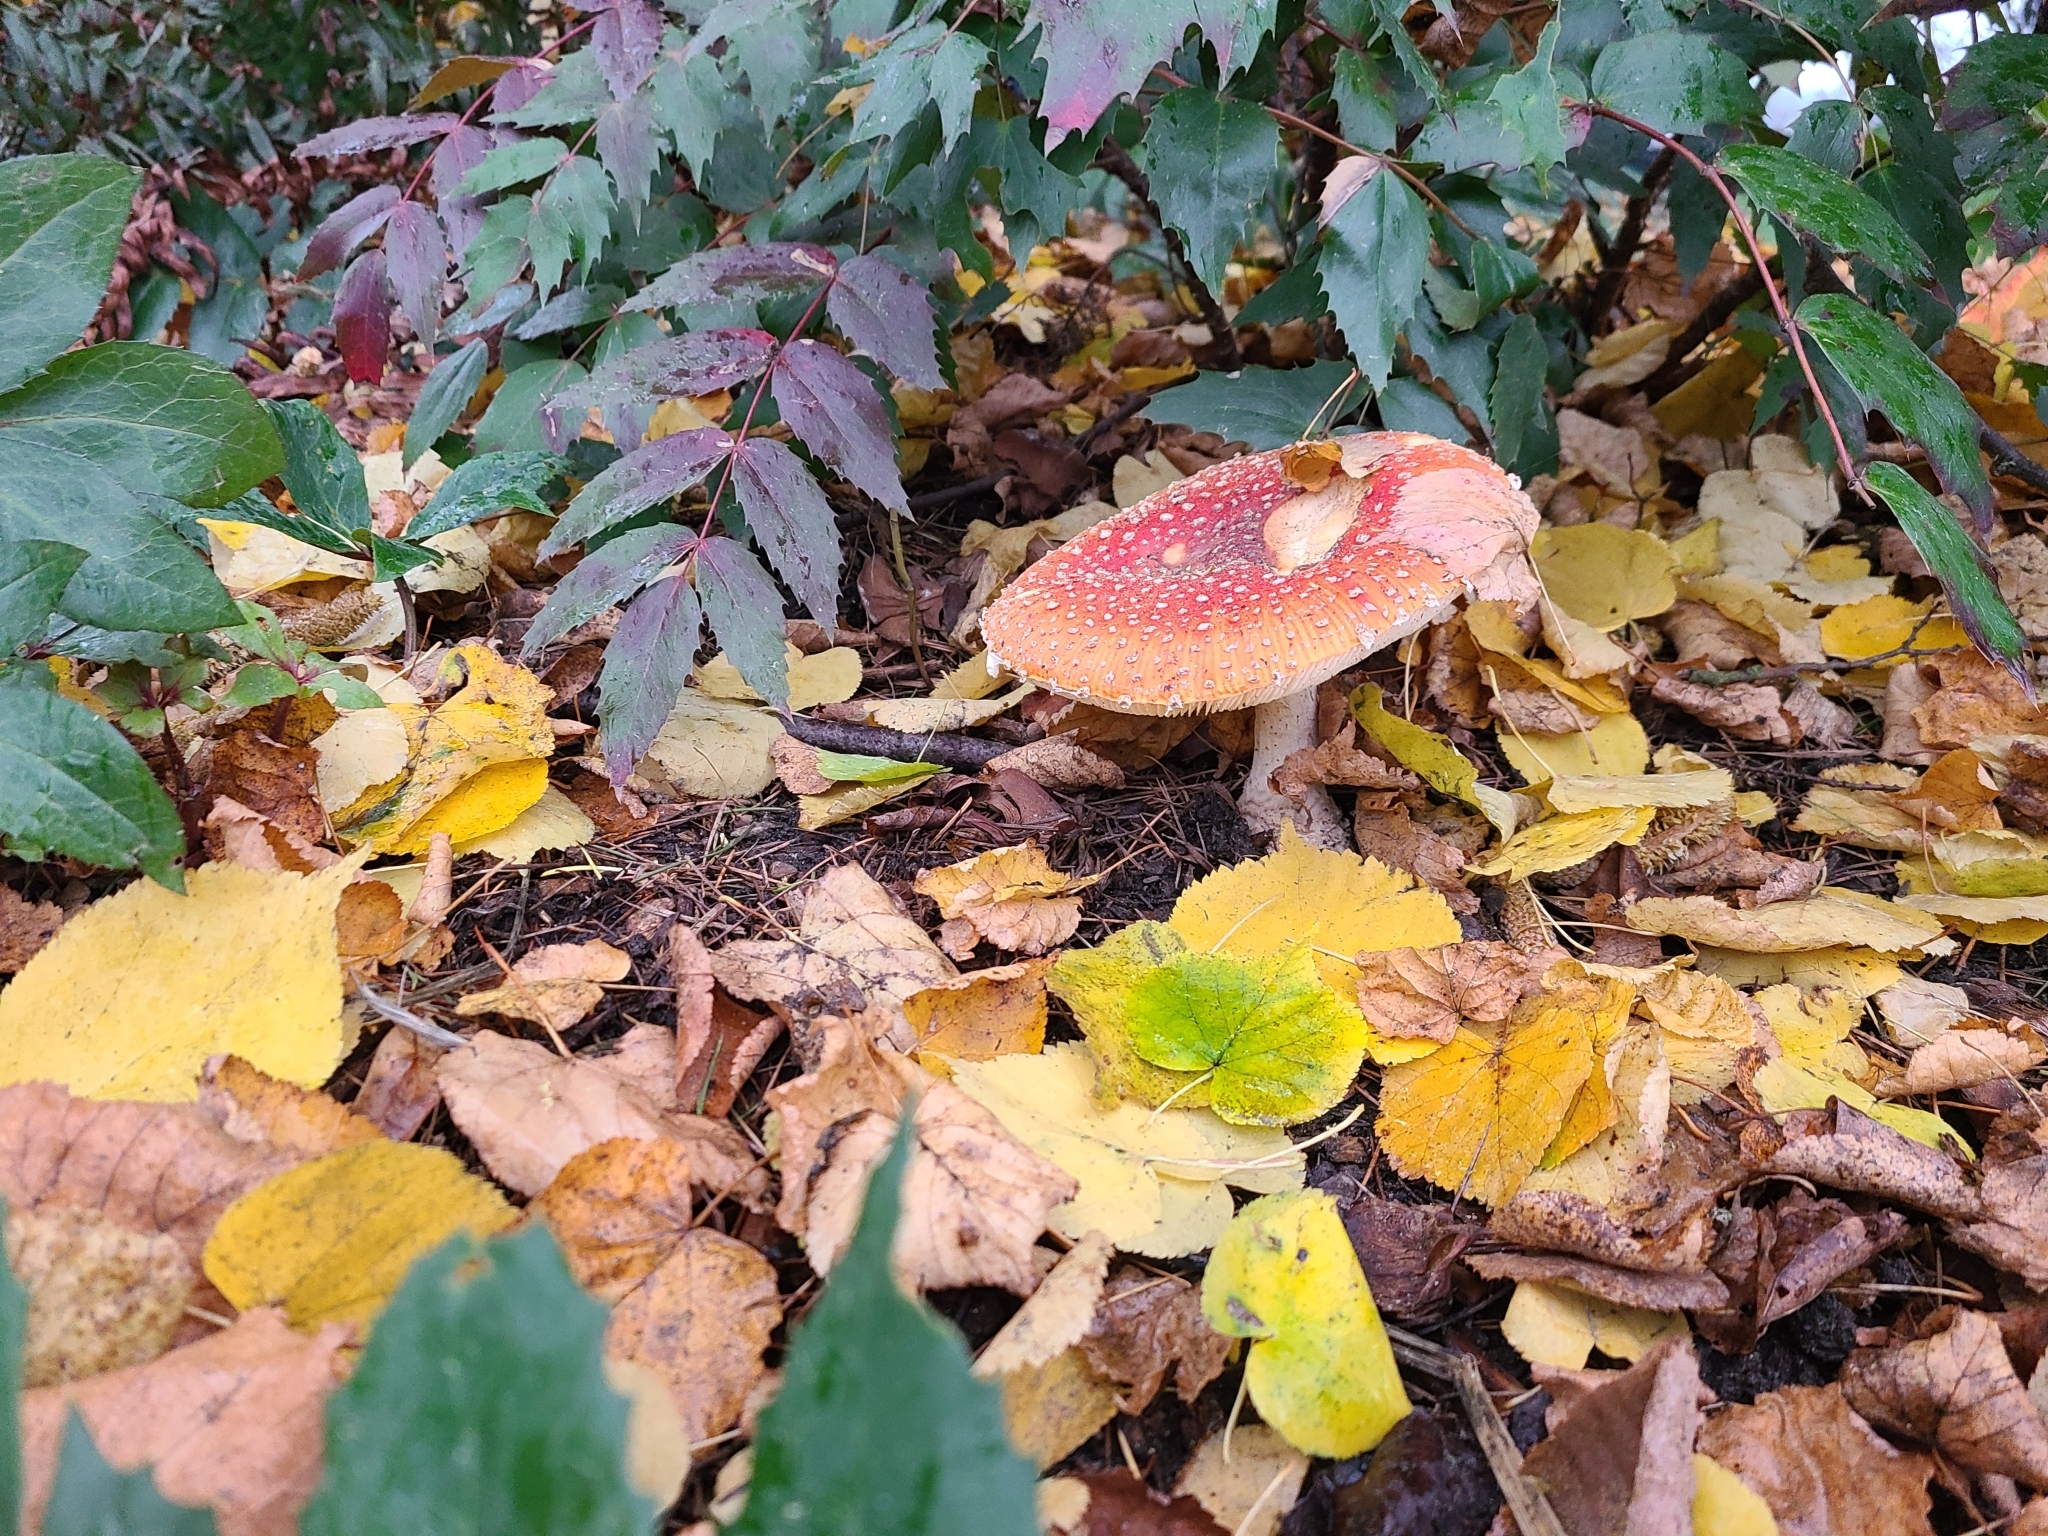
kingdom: Fungi
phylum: Basidiomycota
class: Agaricomycetes
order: Agaricales
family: Amanitaceae
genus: Amanita
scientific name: Amanita muscaria
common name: Fly agaric
